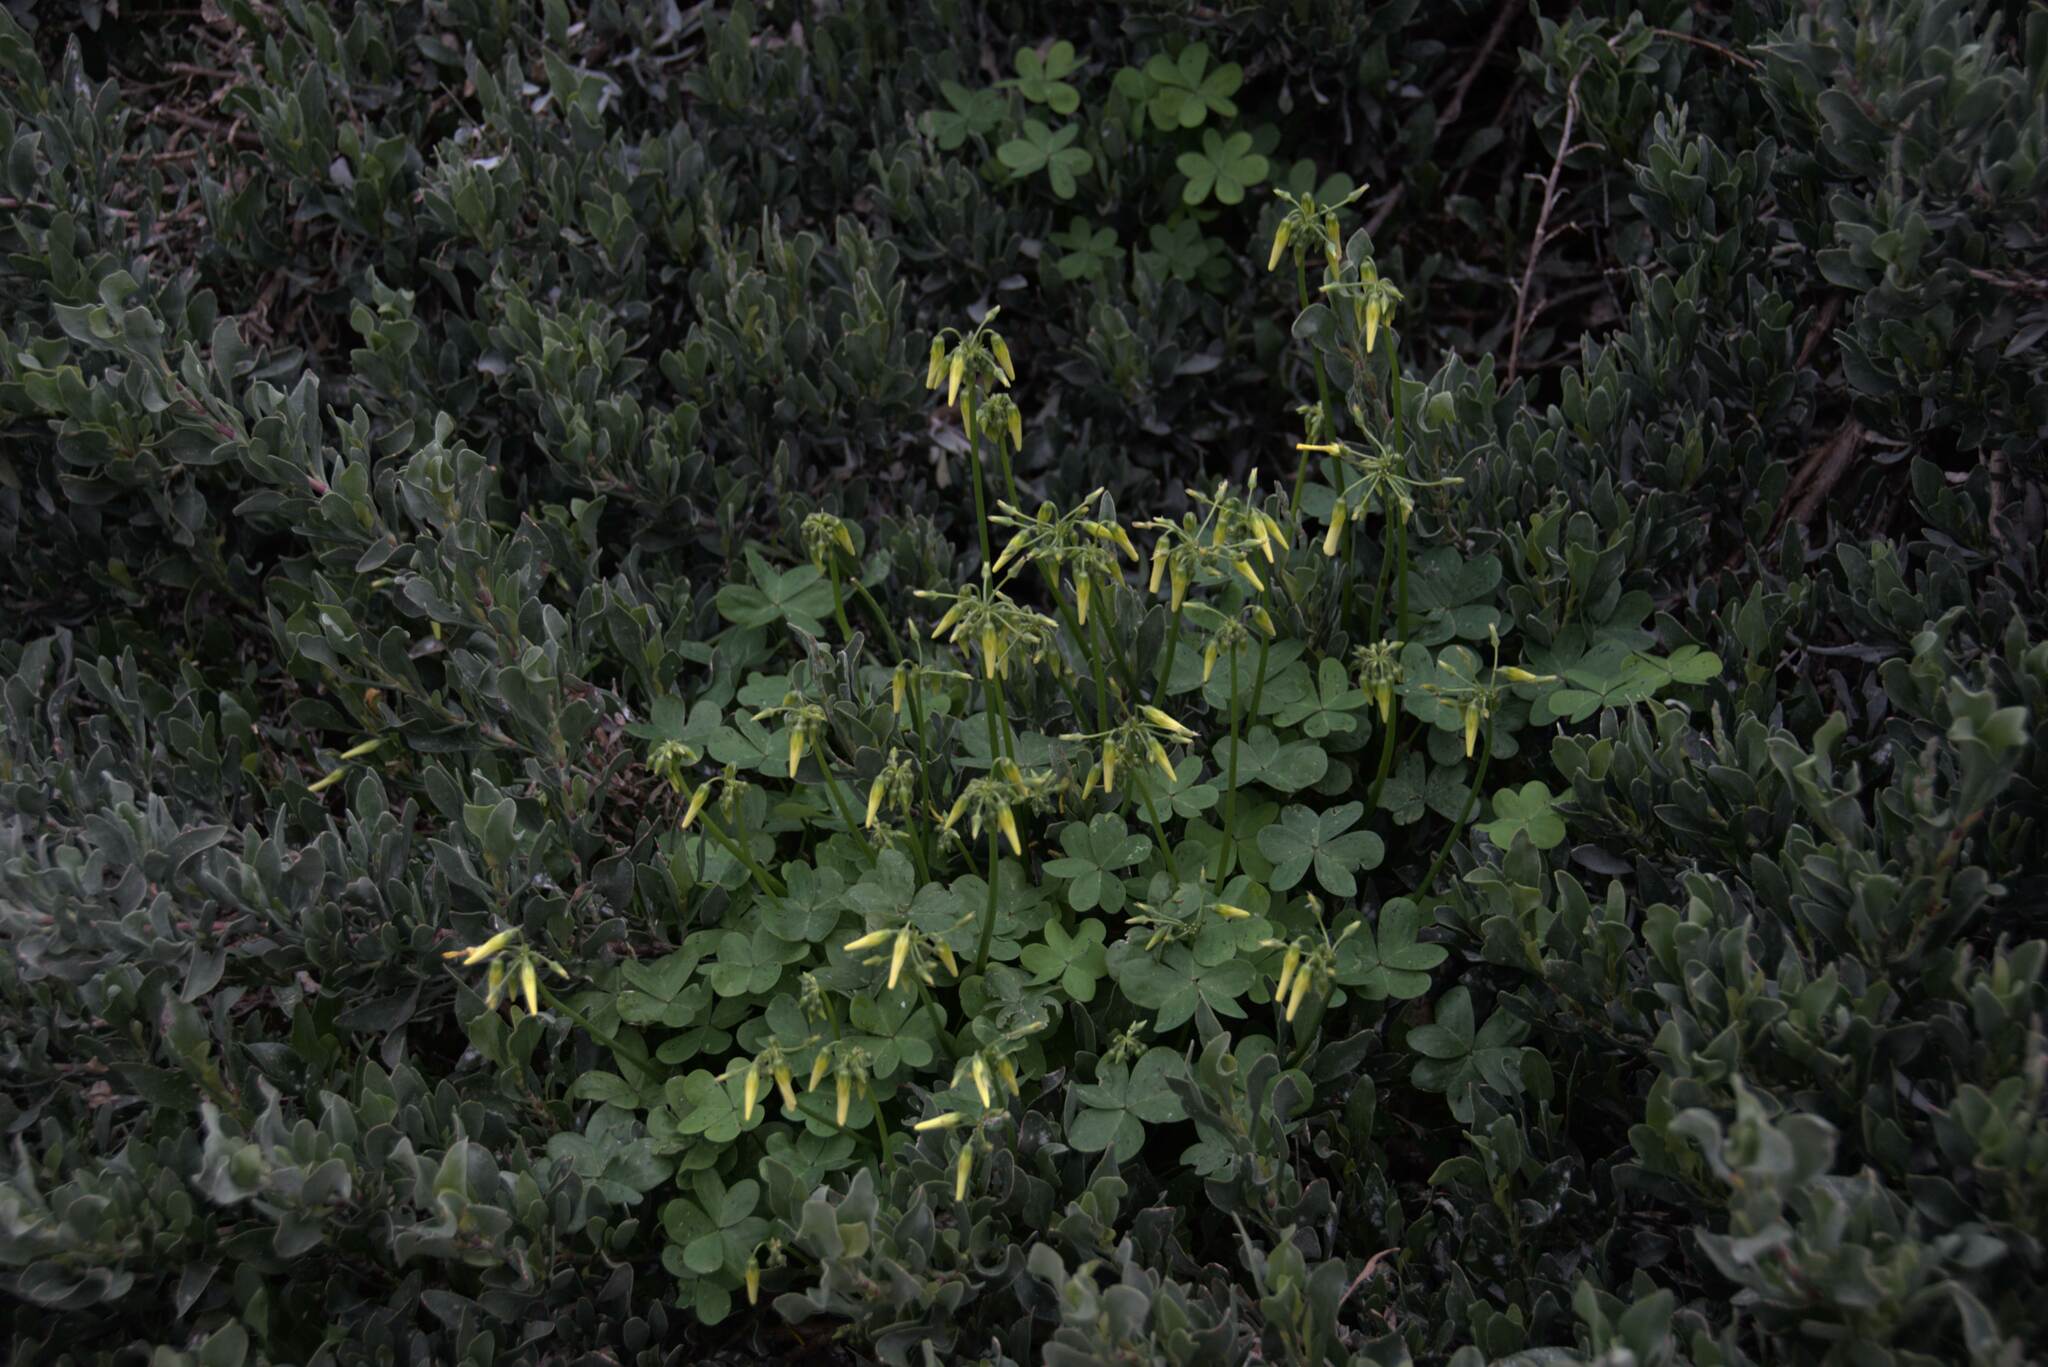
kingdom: Plantae
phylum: Tracheophyta
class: Magnoliopsida
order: Oxalidales
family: Oxalidaceae
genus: Oxalis
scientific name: Oxalis pes-caprae
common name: Bermuda-buttercup
